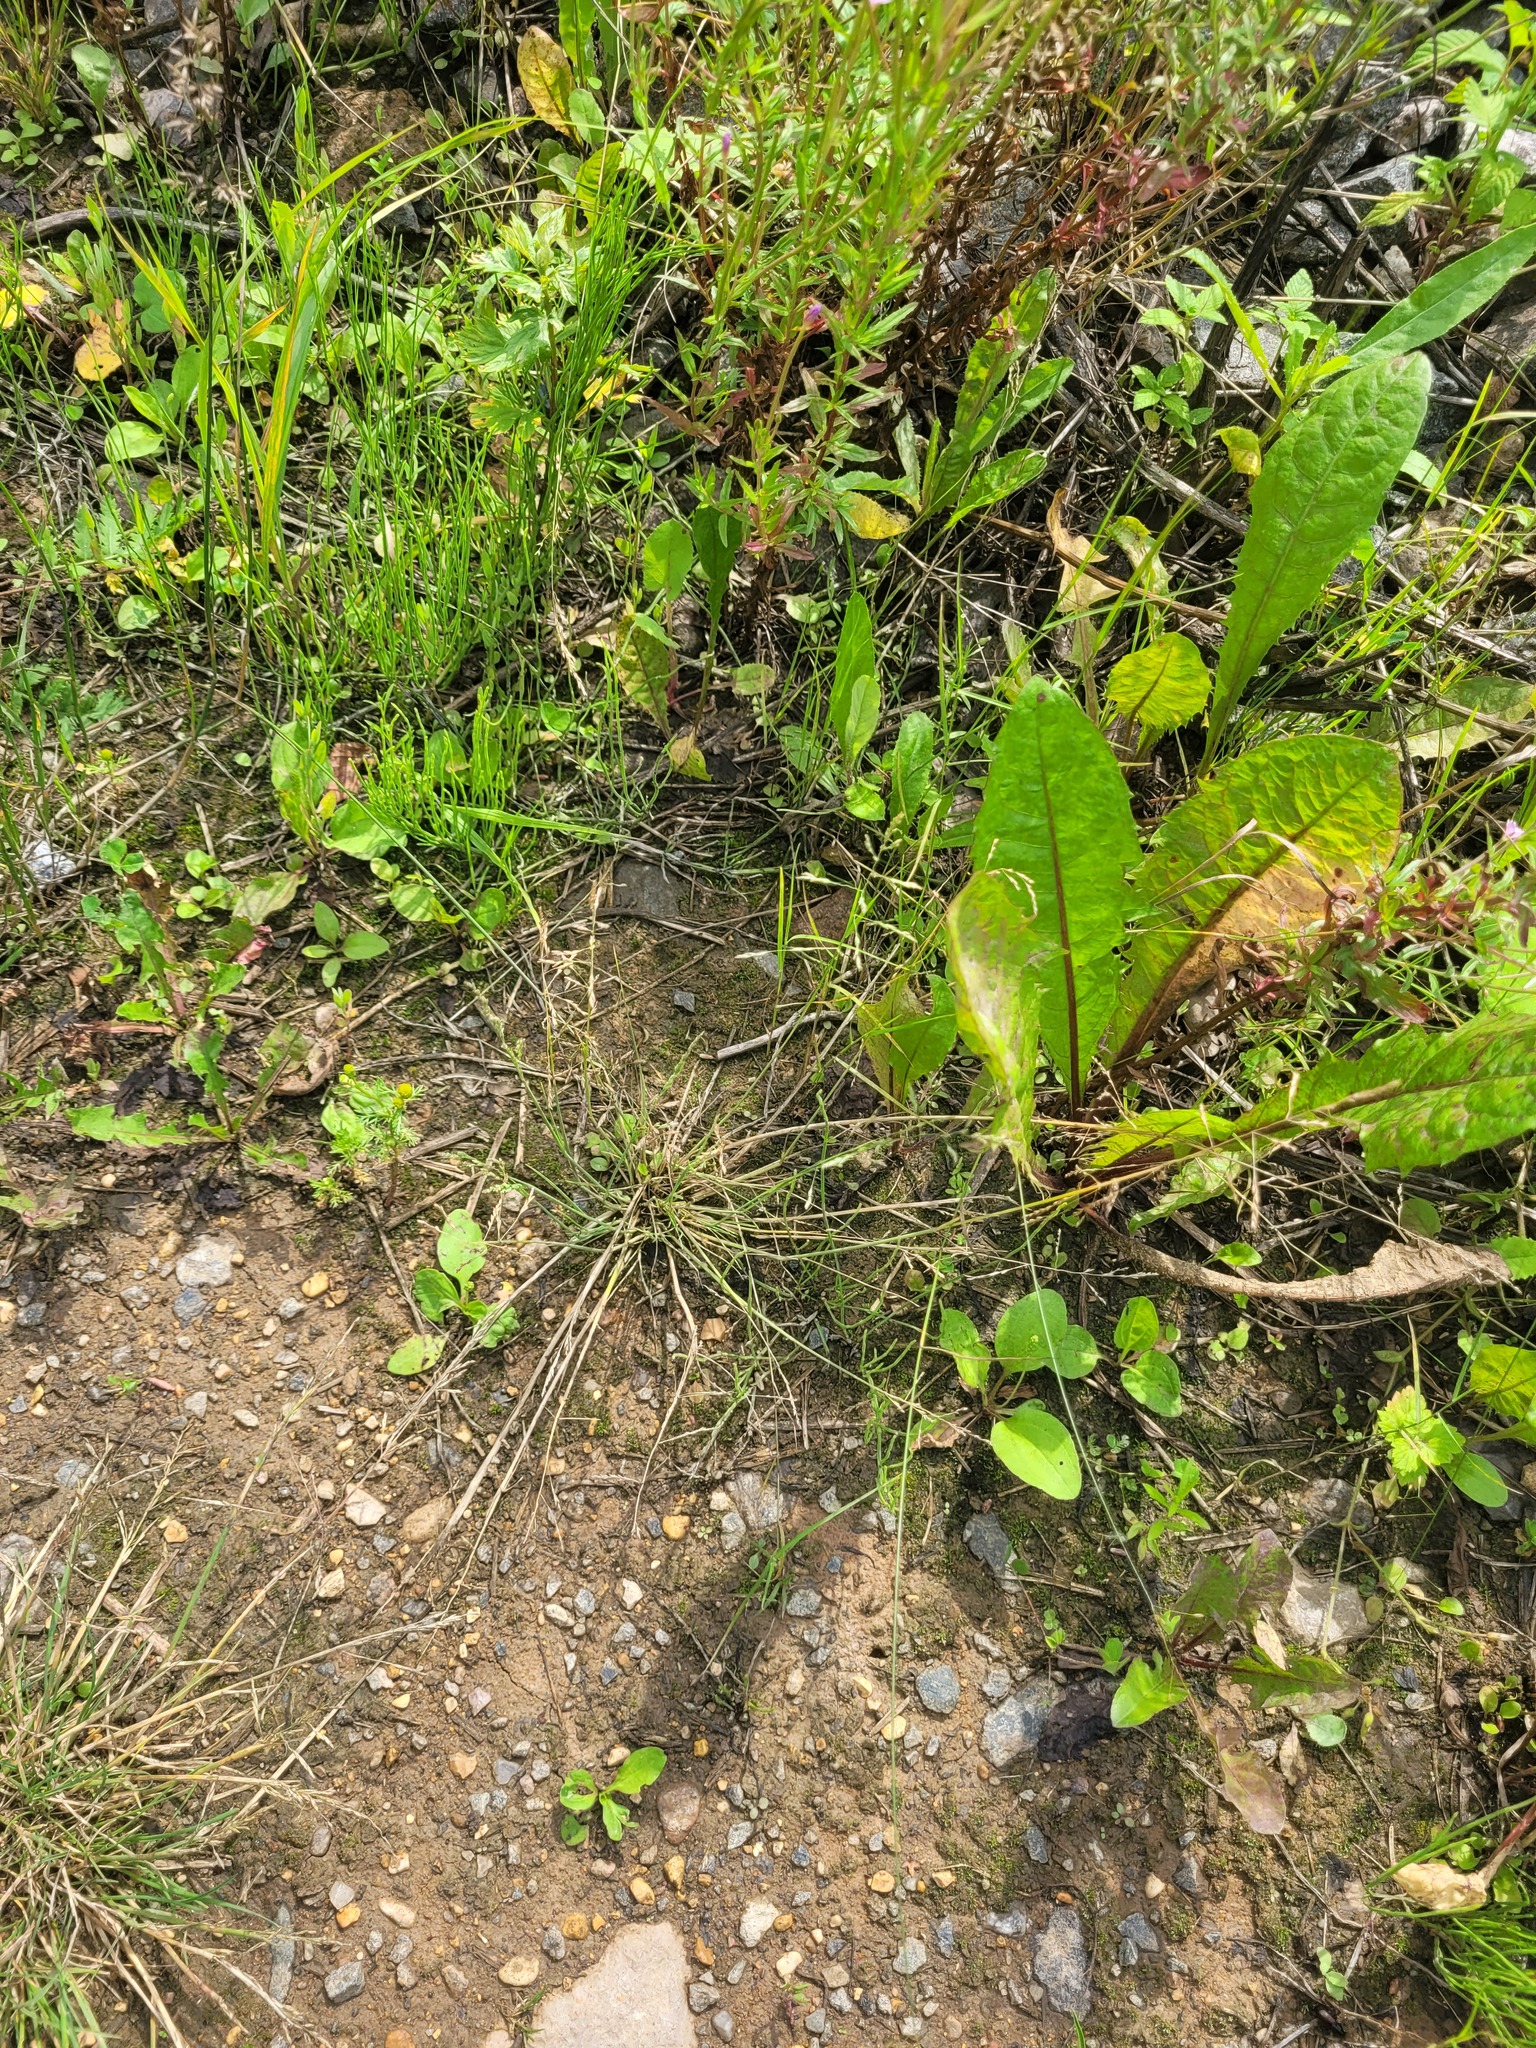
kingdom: Plantae
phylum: Tracheophyta
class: Liliopsida
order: Poales
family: Poaceae
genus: Puccinellia
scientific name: Puccinellia distans
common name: Weeping alkaligrass
